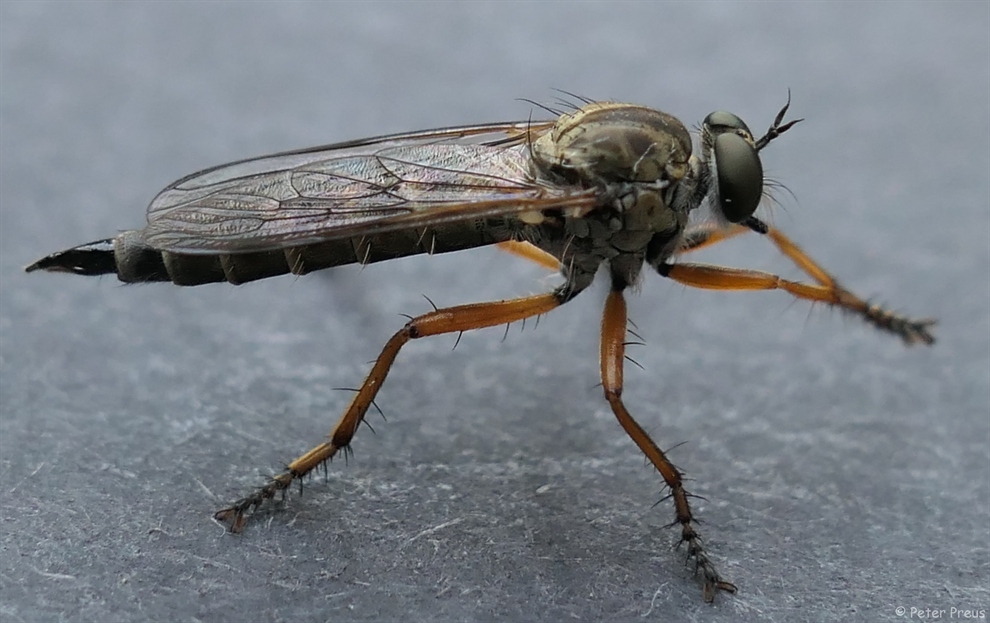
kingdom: Animalia
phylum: Arthropoda
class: Insecta
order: Diptera
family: Asilidae
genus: Neomochtherus
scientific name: Neomochtherus pallipes
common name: Devon red-legged robberfly
